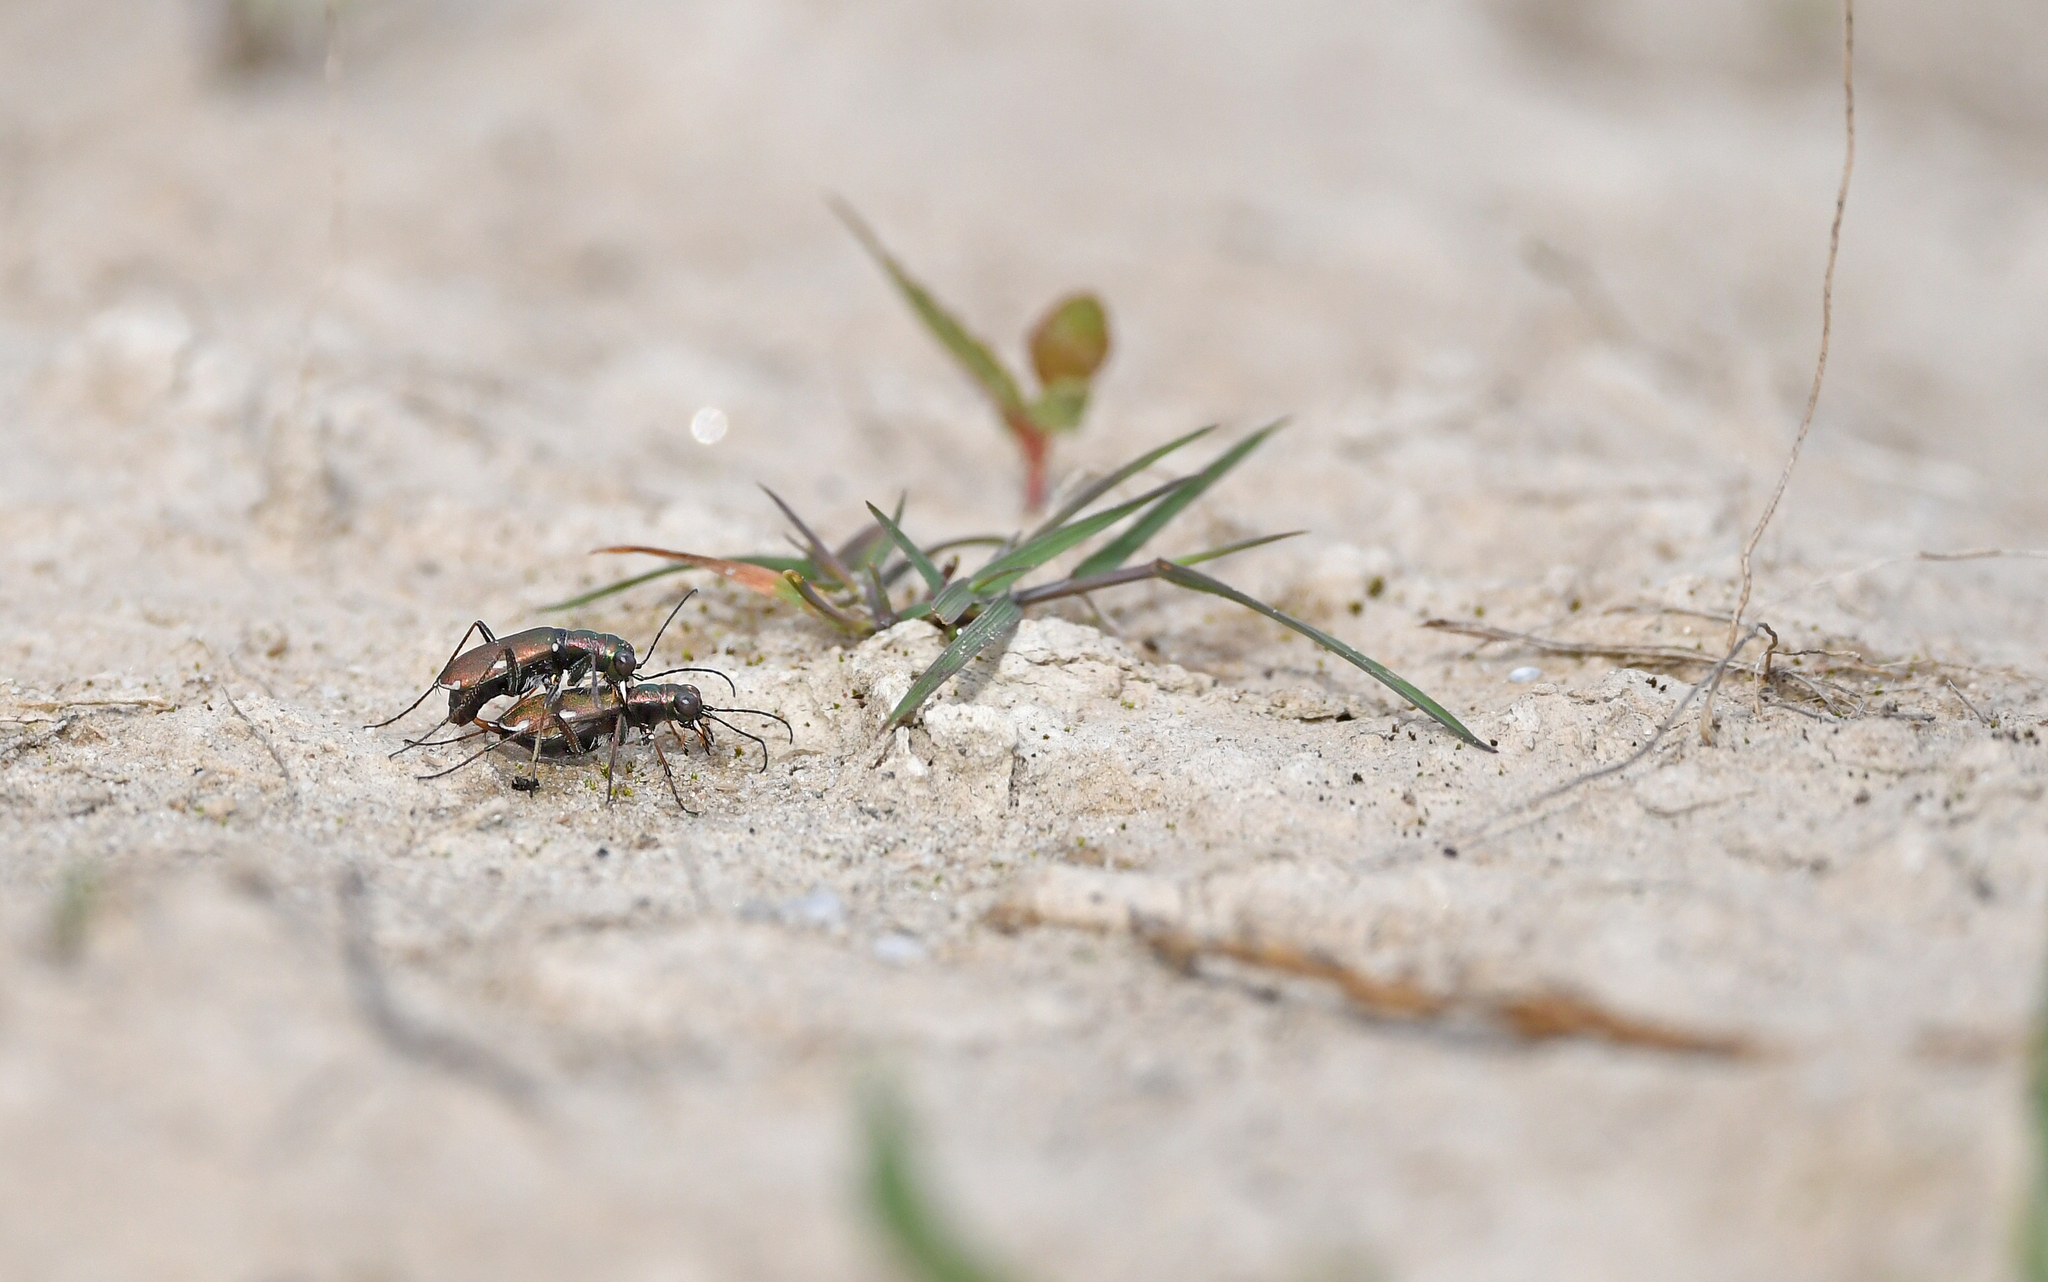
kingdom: Animalia
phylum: Arthropoda
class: Insecta
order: Coleoptera
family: Carabidae
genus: Cylindera
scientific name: Cylindera germanica
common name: Cliff tiger beetle
